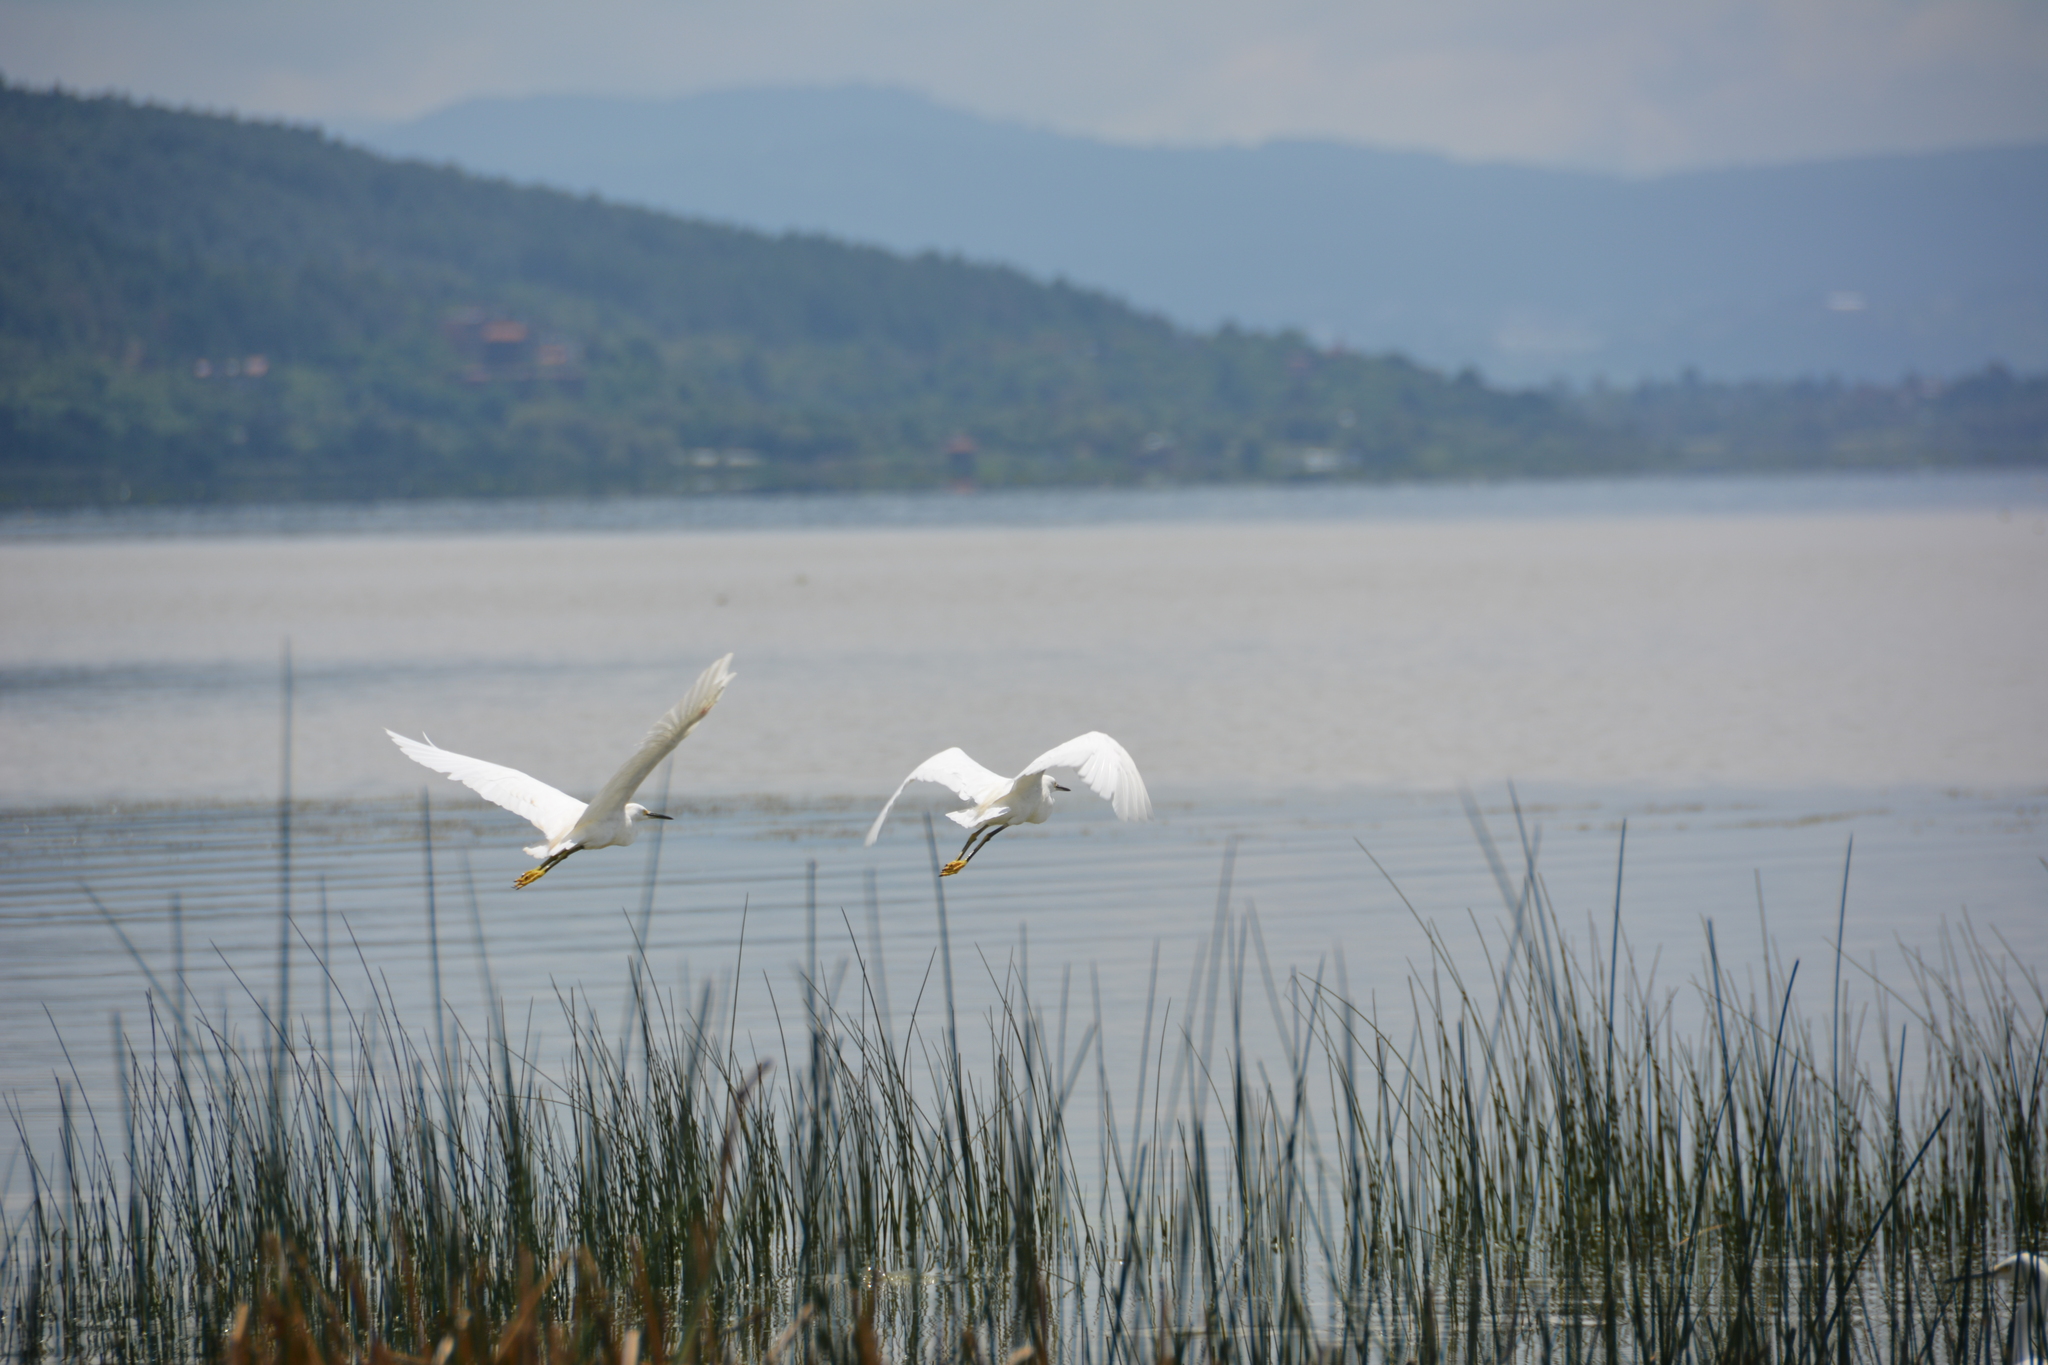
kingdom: Animalia
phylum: Chordata
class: Aves
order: Pelecaniformes
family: Ardeidae
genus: Egretta
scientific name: Egretta thula
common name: Snowy egret
